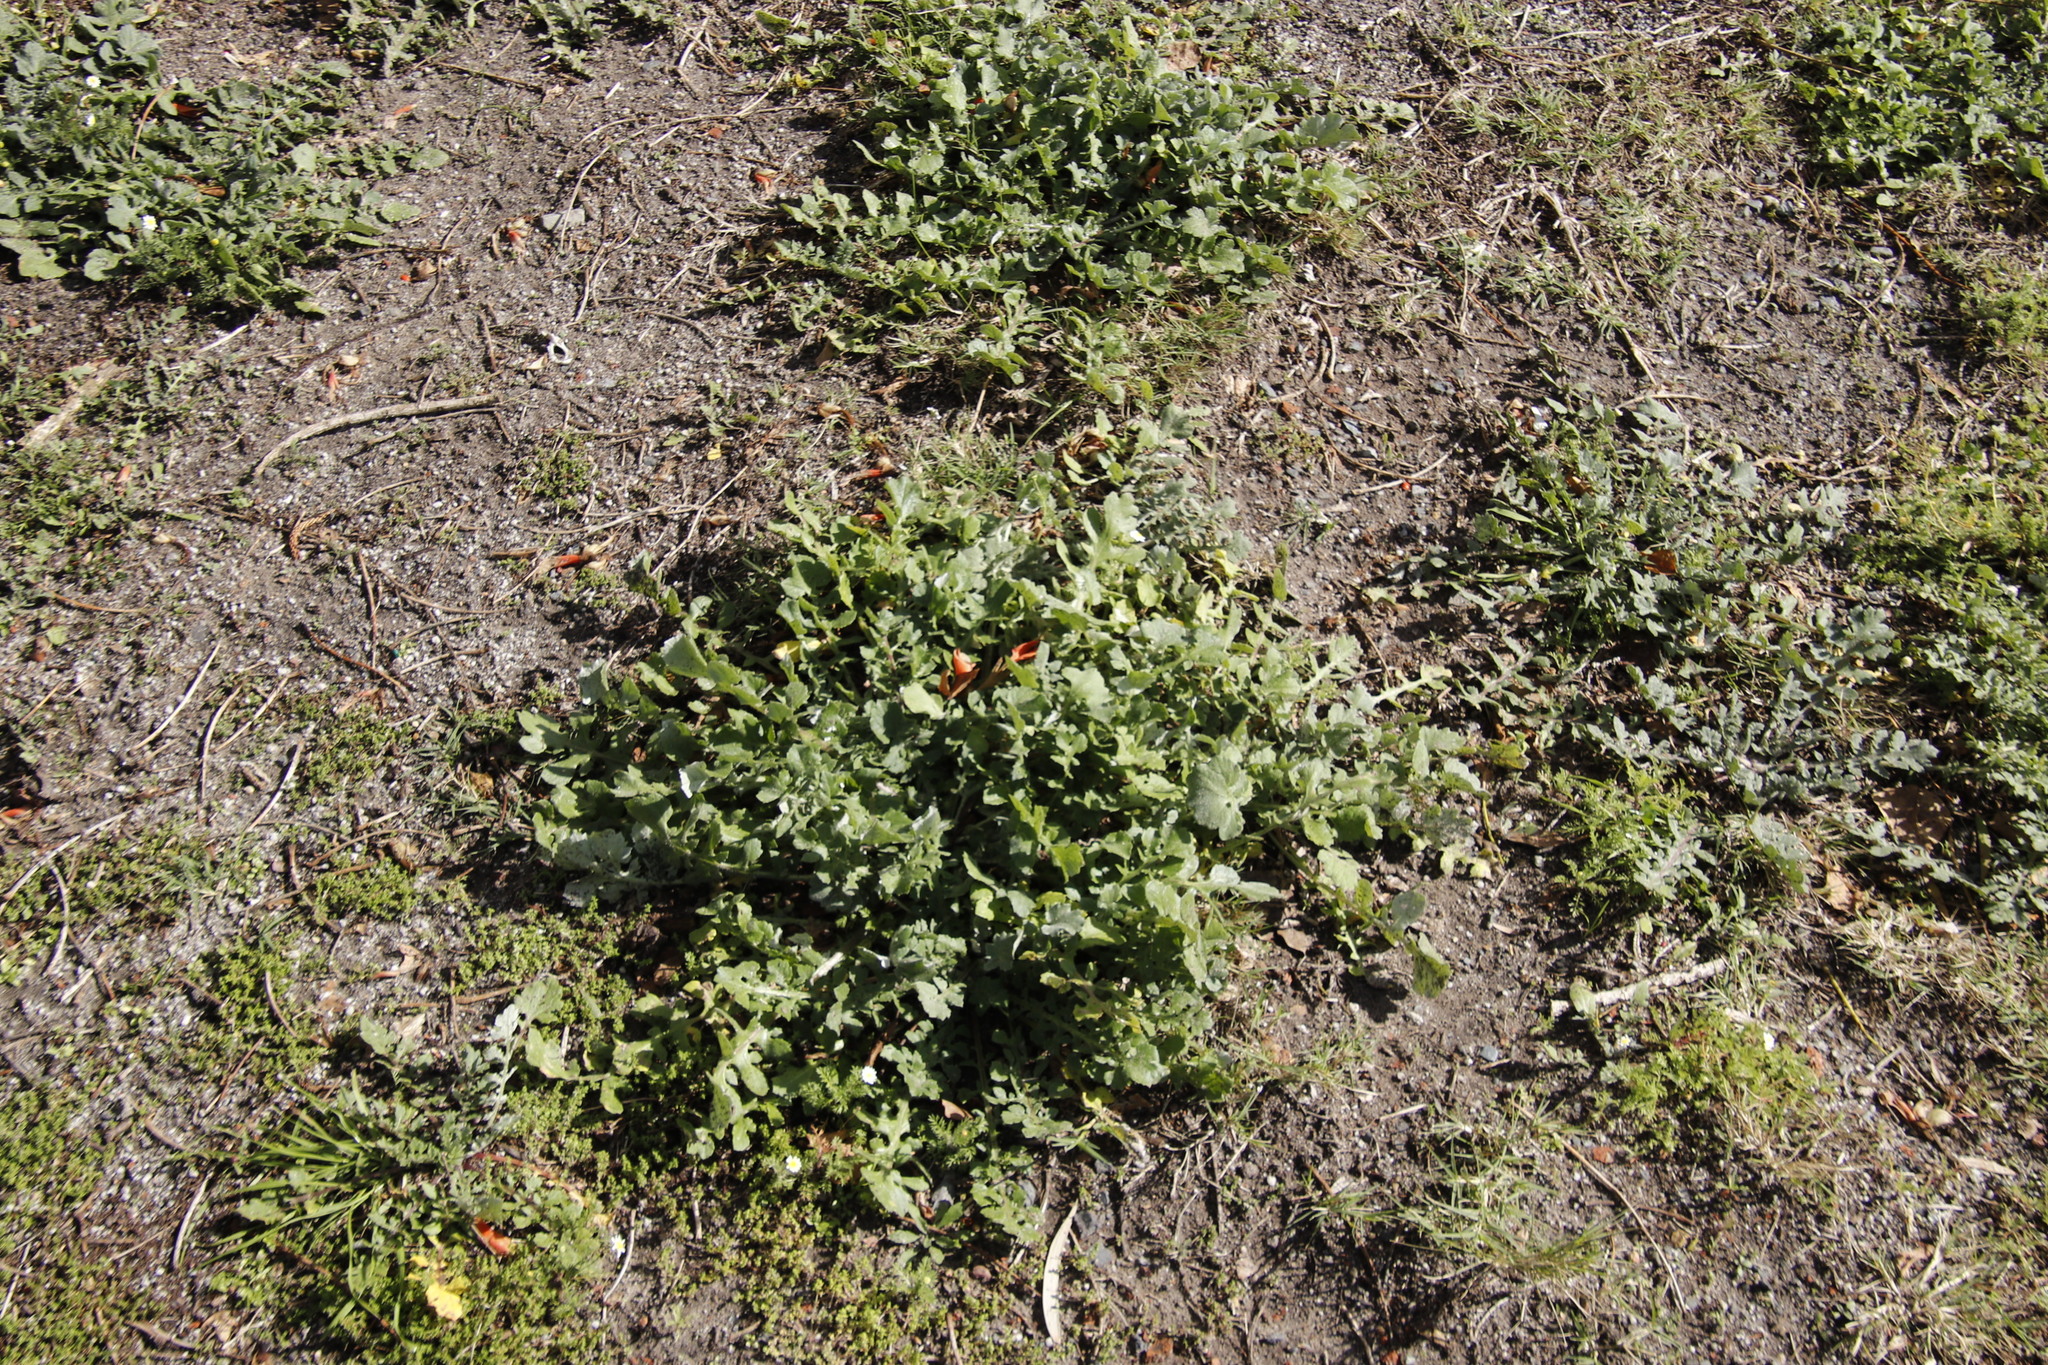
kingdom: Plantae
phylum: Tracheophyta
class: Magnoliopsida
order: Asterales
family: Asteraceae
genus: Arctotheca
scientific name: Arctotheca calendula
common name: Capeweed
